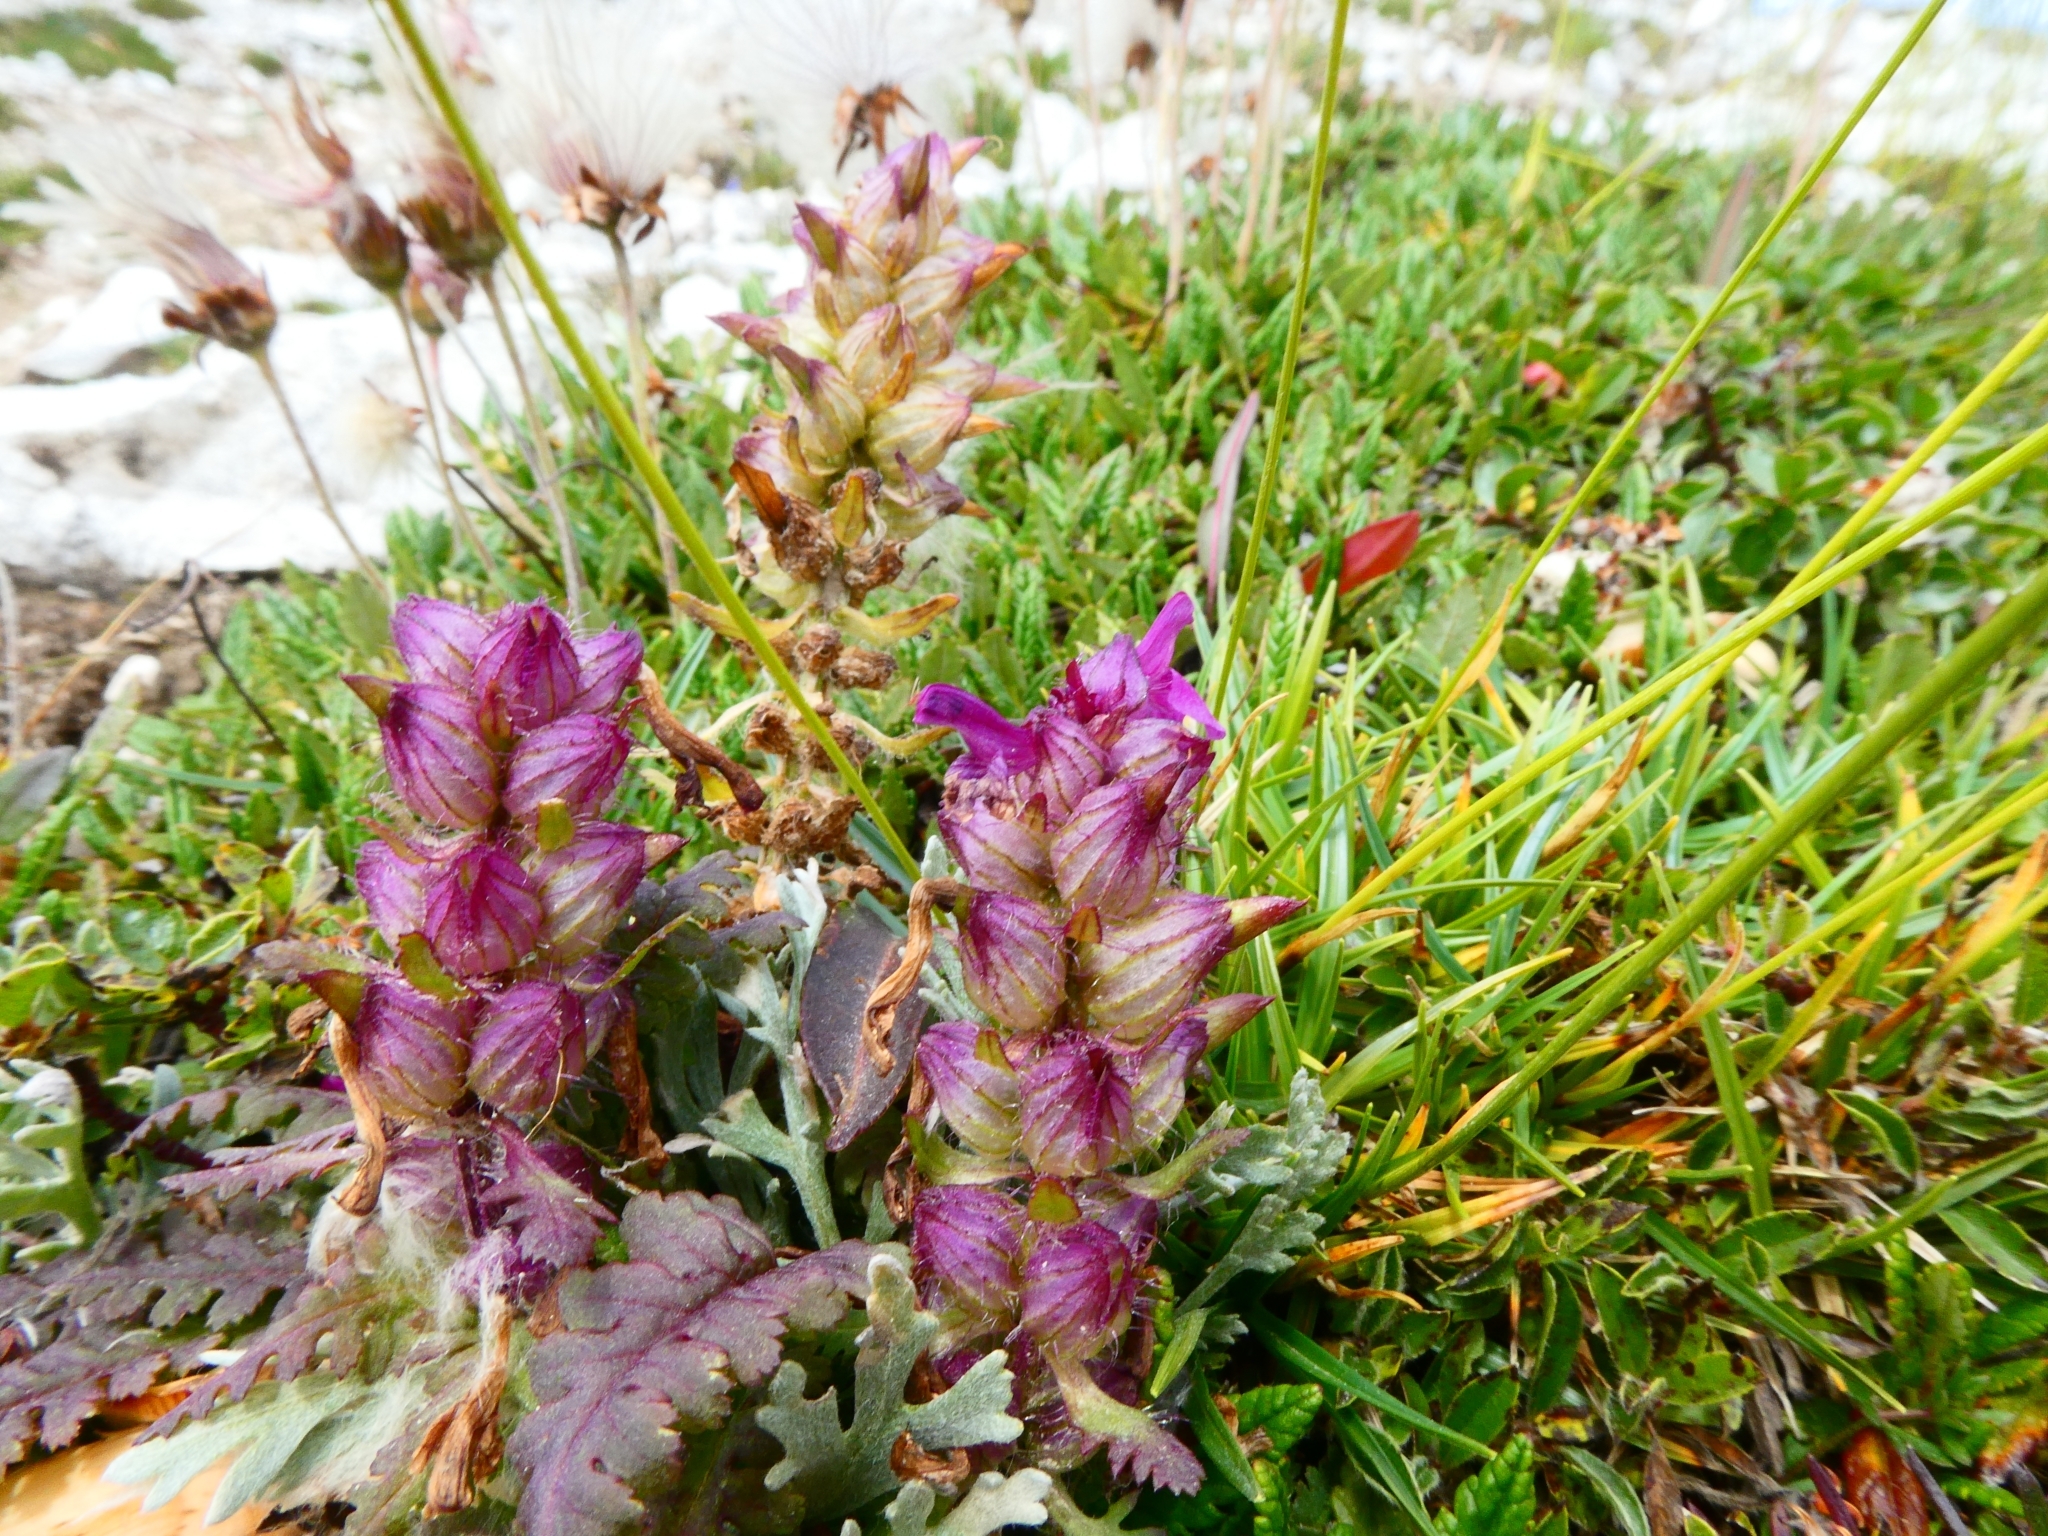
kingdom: Plantae
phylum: Tracheophyta
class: Magnoliopsida
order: Lamiales
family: Orobanchaceae
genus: Pedicularis
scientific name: Pedicularis verticillata
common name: Whorled lousewort
